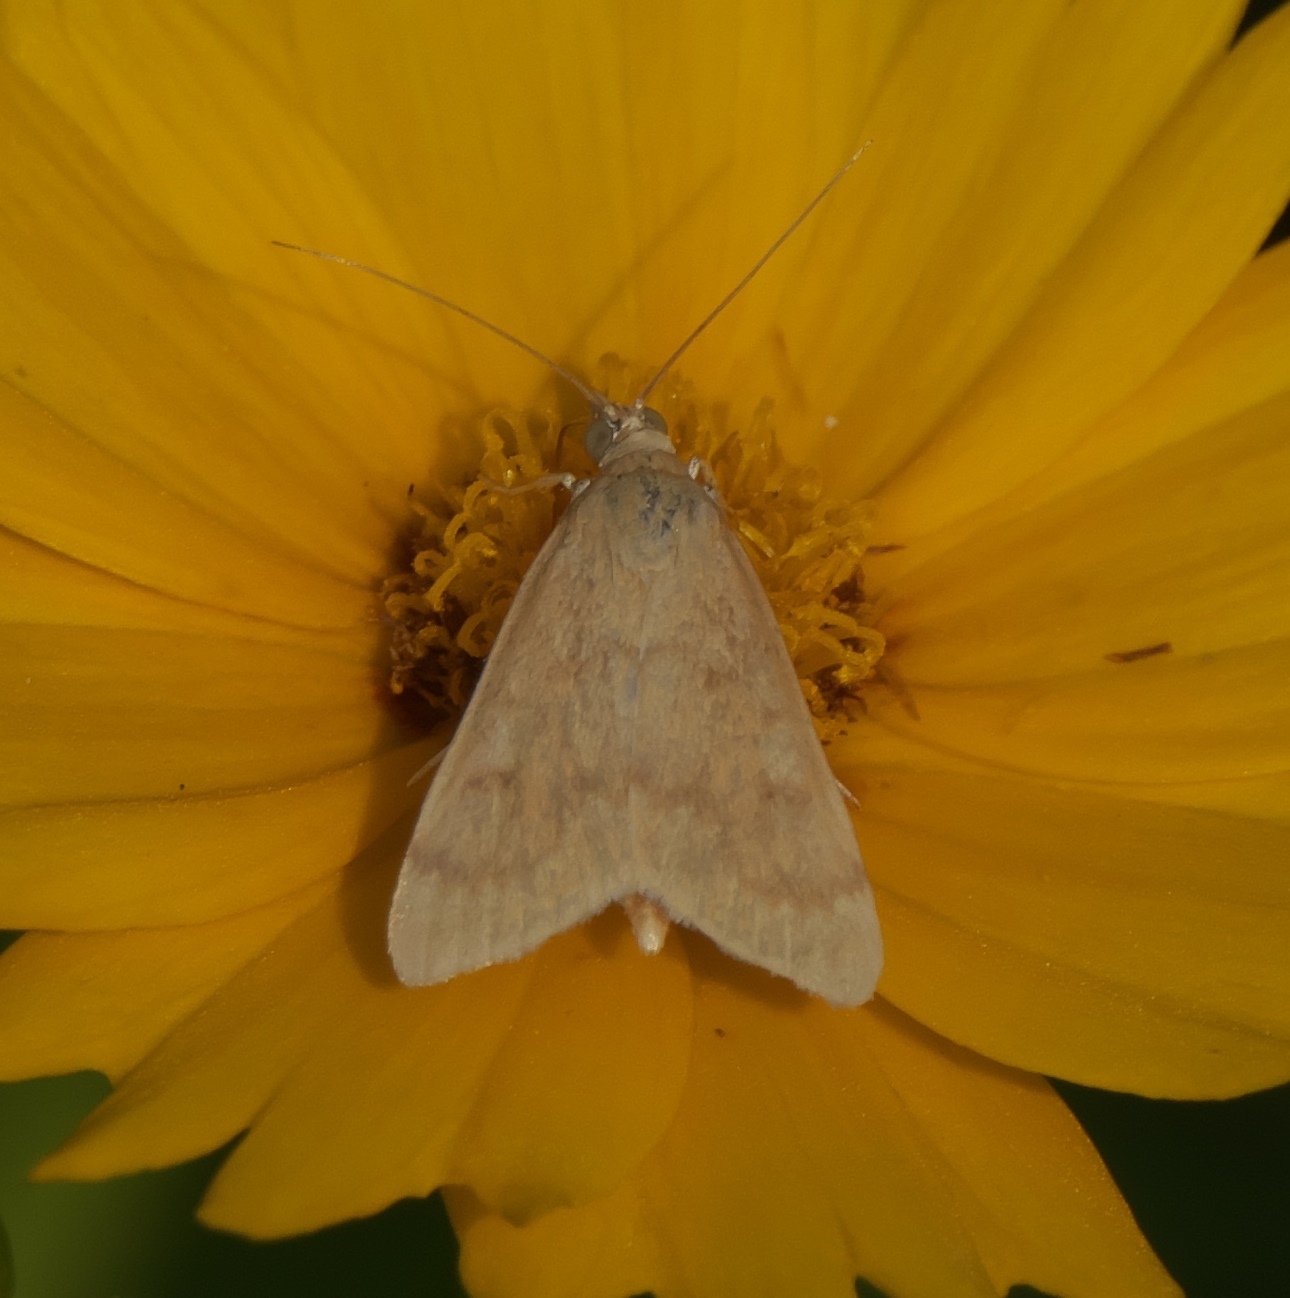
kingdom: Animalia
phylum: Arthropoda
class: Insecta
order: Lepidoptera
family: Crambidae
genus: Achyra
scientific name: Achyra rantalis
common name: Garden webworm
